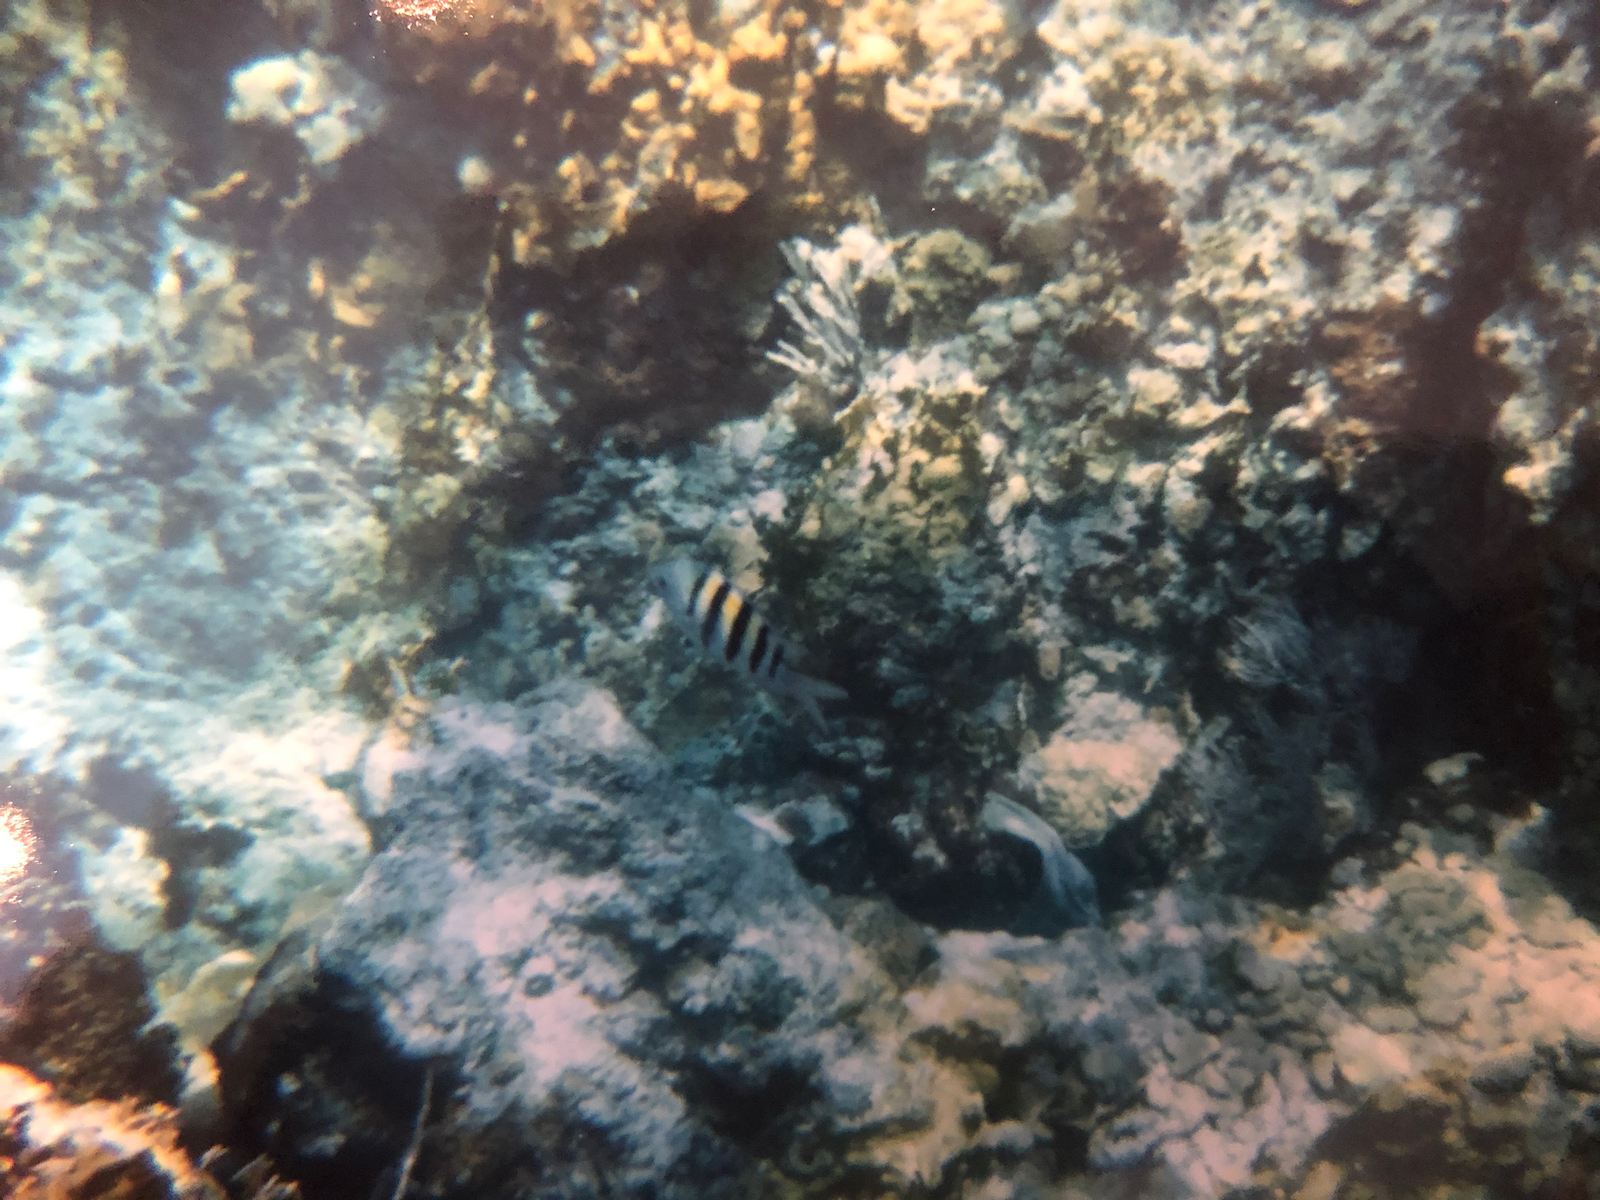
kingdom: Animalia
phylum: Chordata
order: Perciformes
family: Pomacentridae
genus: Abudefduf
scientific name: Abudefduf saxatilis
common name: Sergeant major
